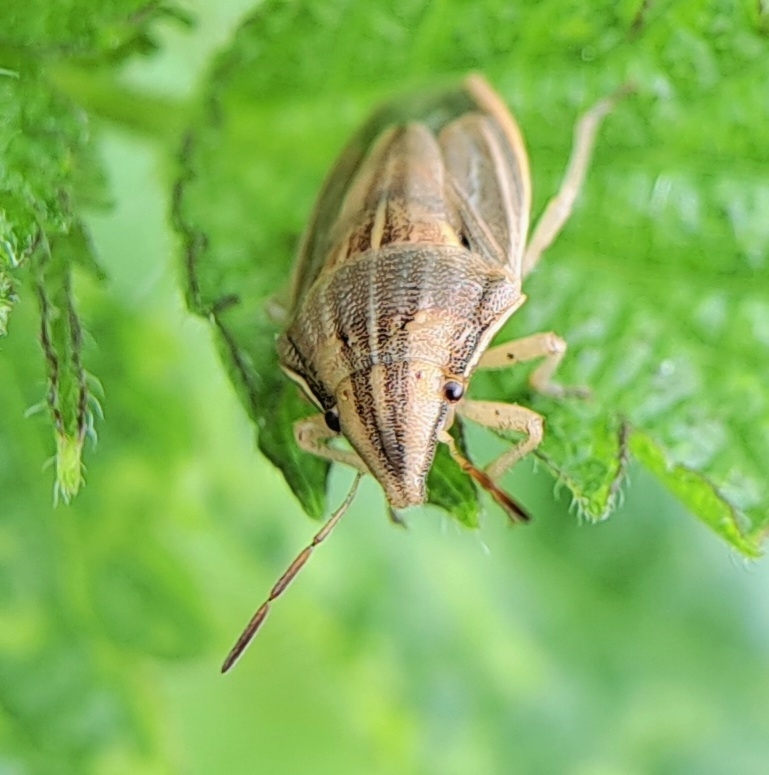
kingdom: Animalia
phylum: Arthropoda
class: Insecta
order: Hemiptera
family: Pentatomidae
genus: Aelia
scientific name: Aelia acuminata
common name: Bishop's mitre
